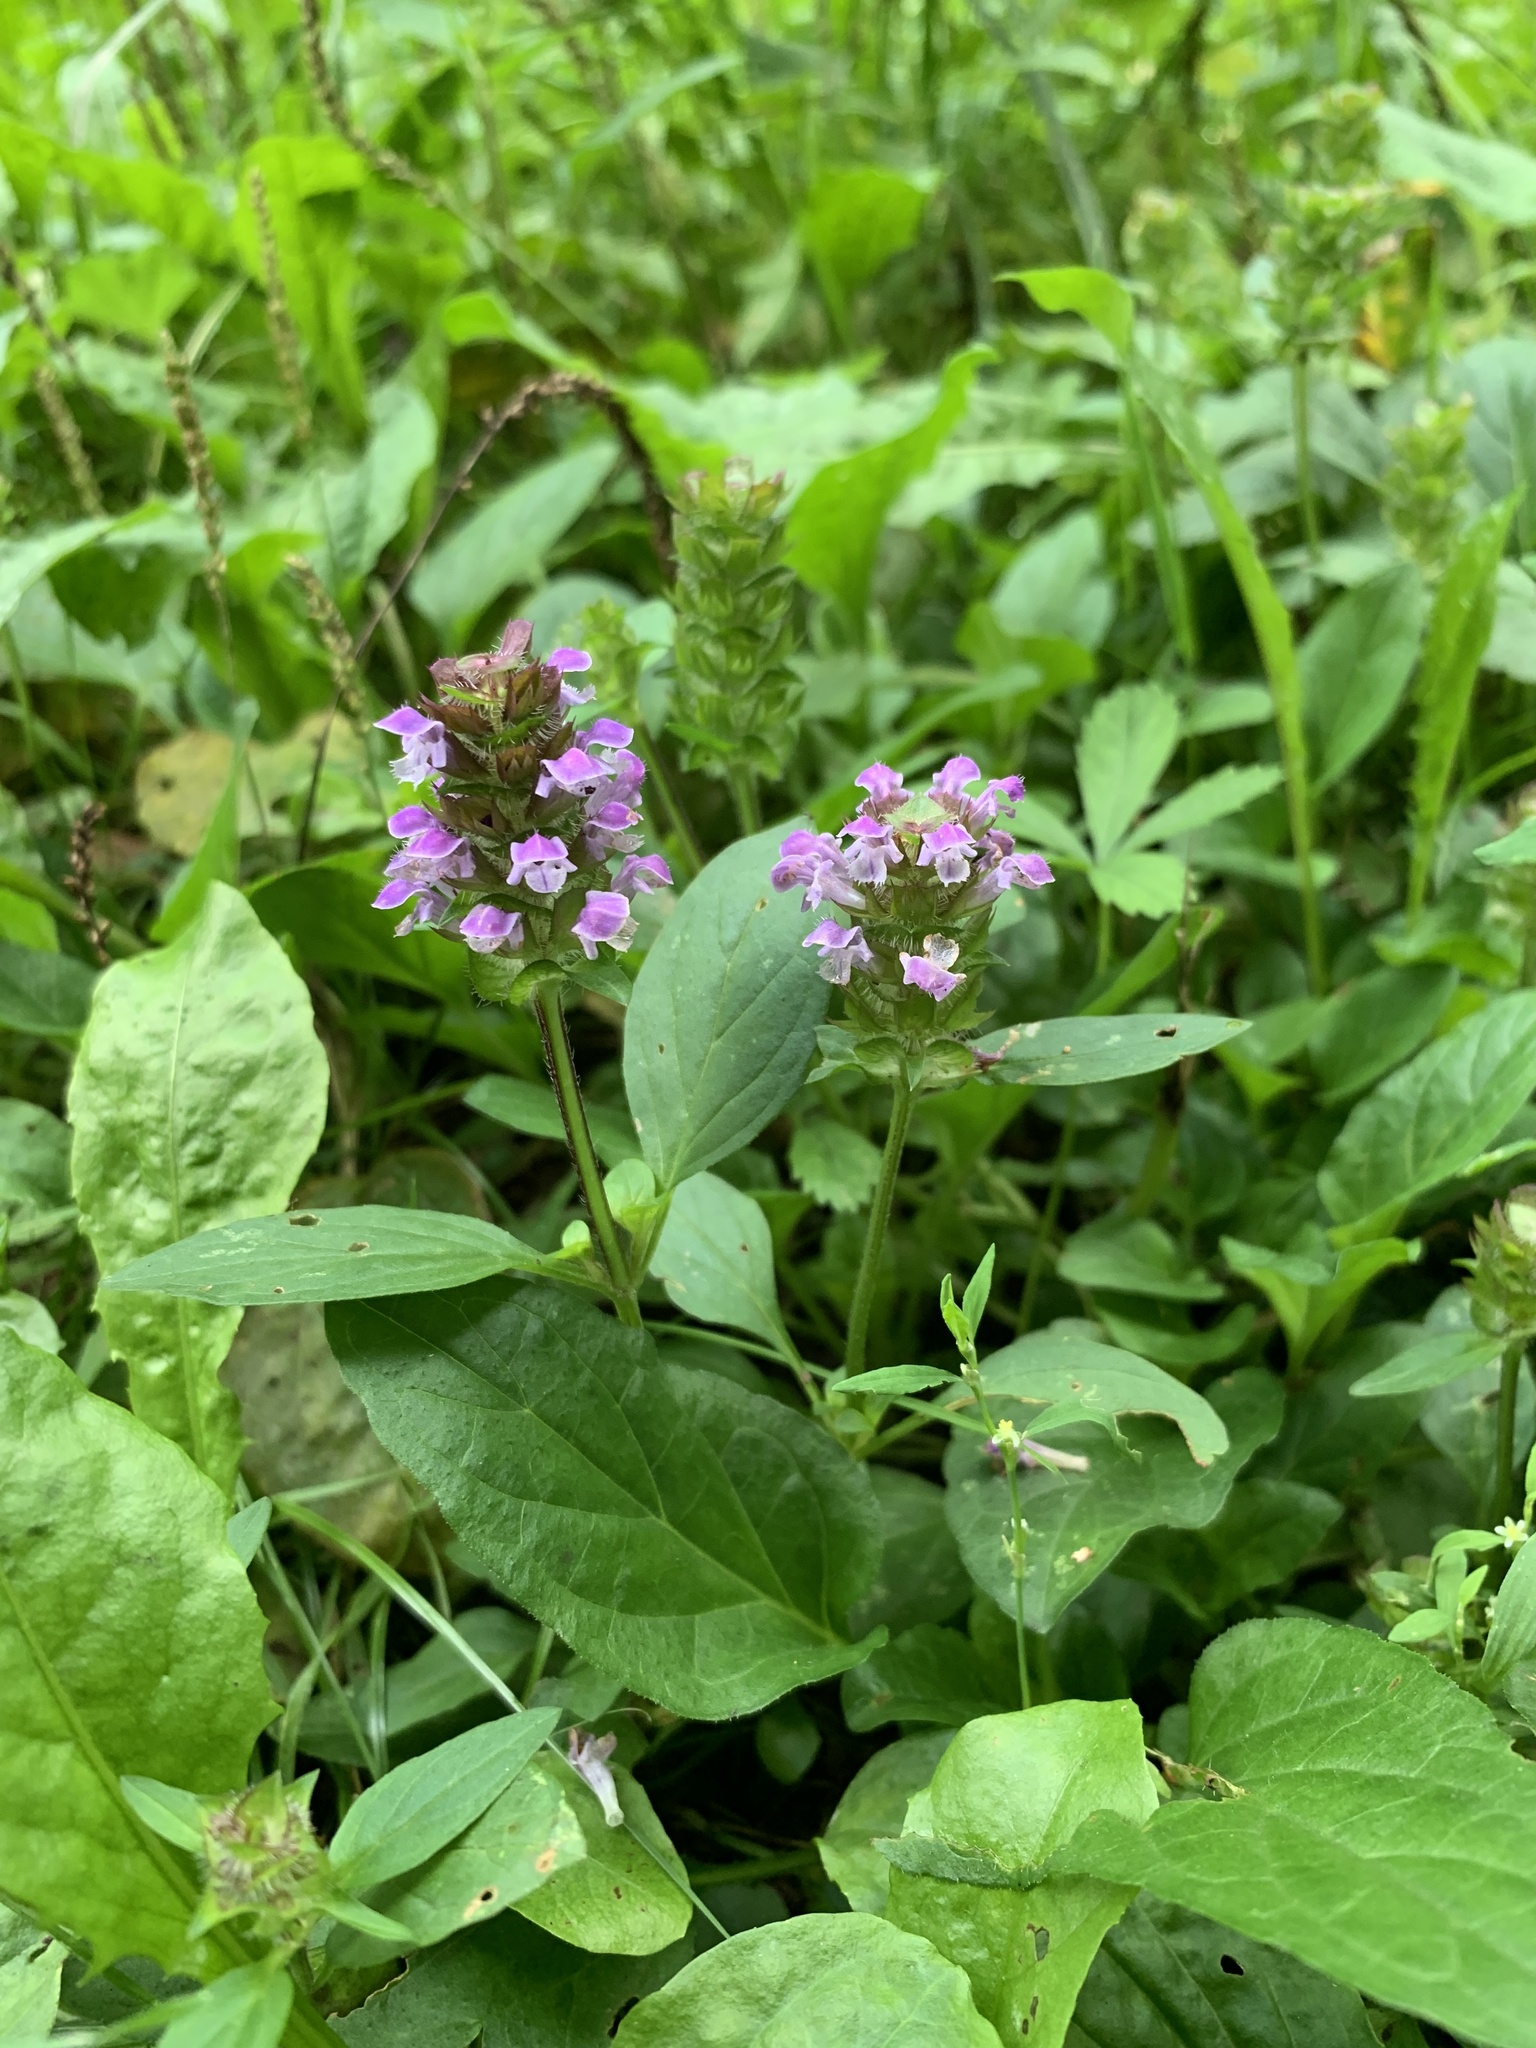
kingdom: Plantae
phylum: Tracheophyta
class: Magnoliopsida
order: Lamiales
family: Lamiaceae
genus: Prunella
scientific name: Prunella vulgaris
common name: Heal-all
